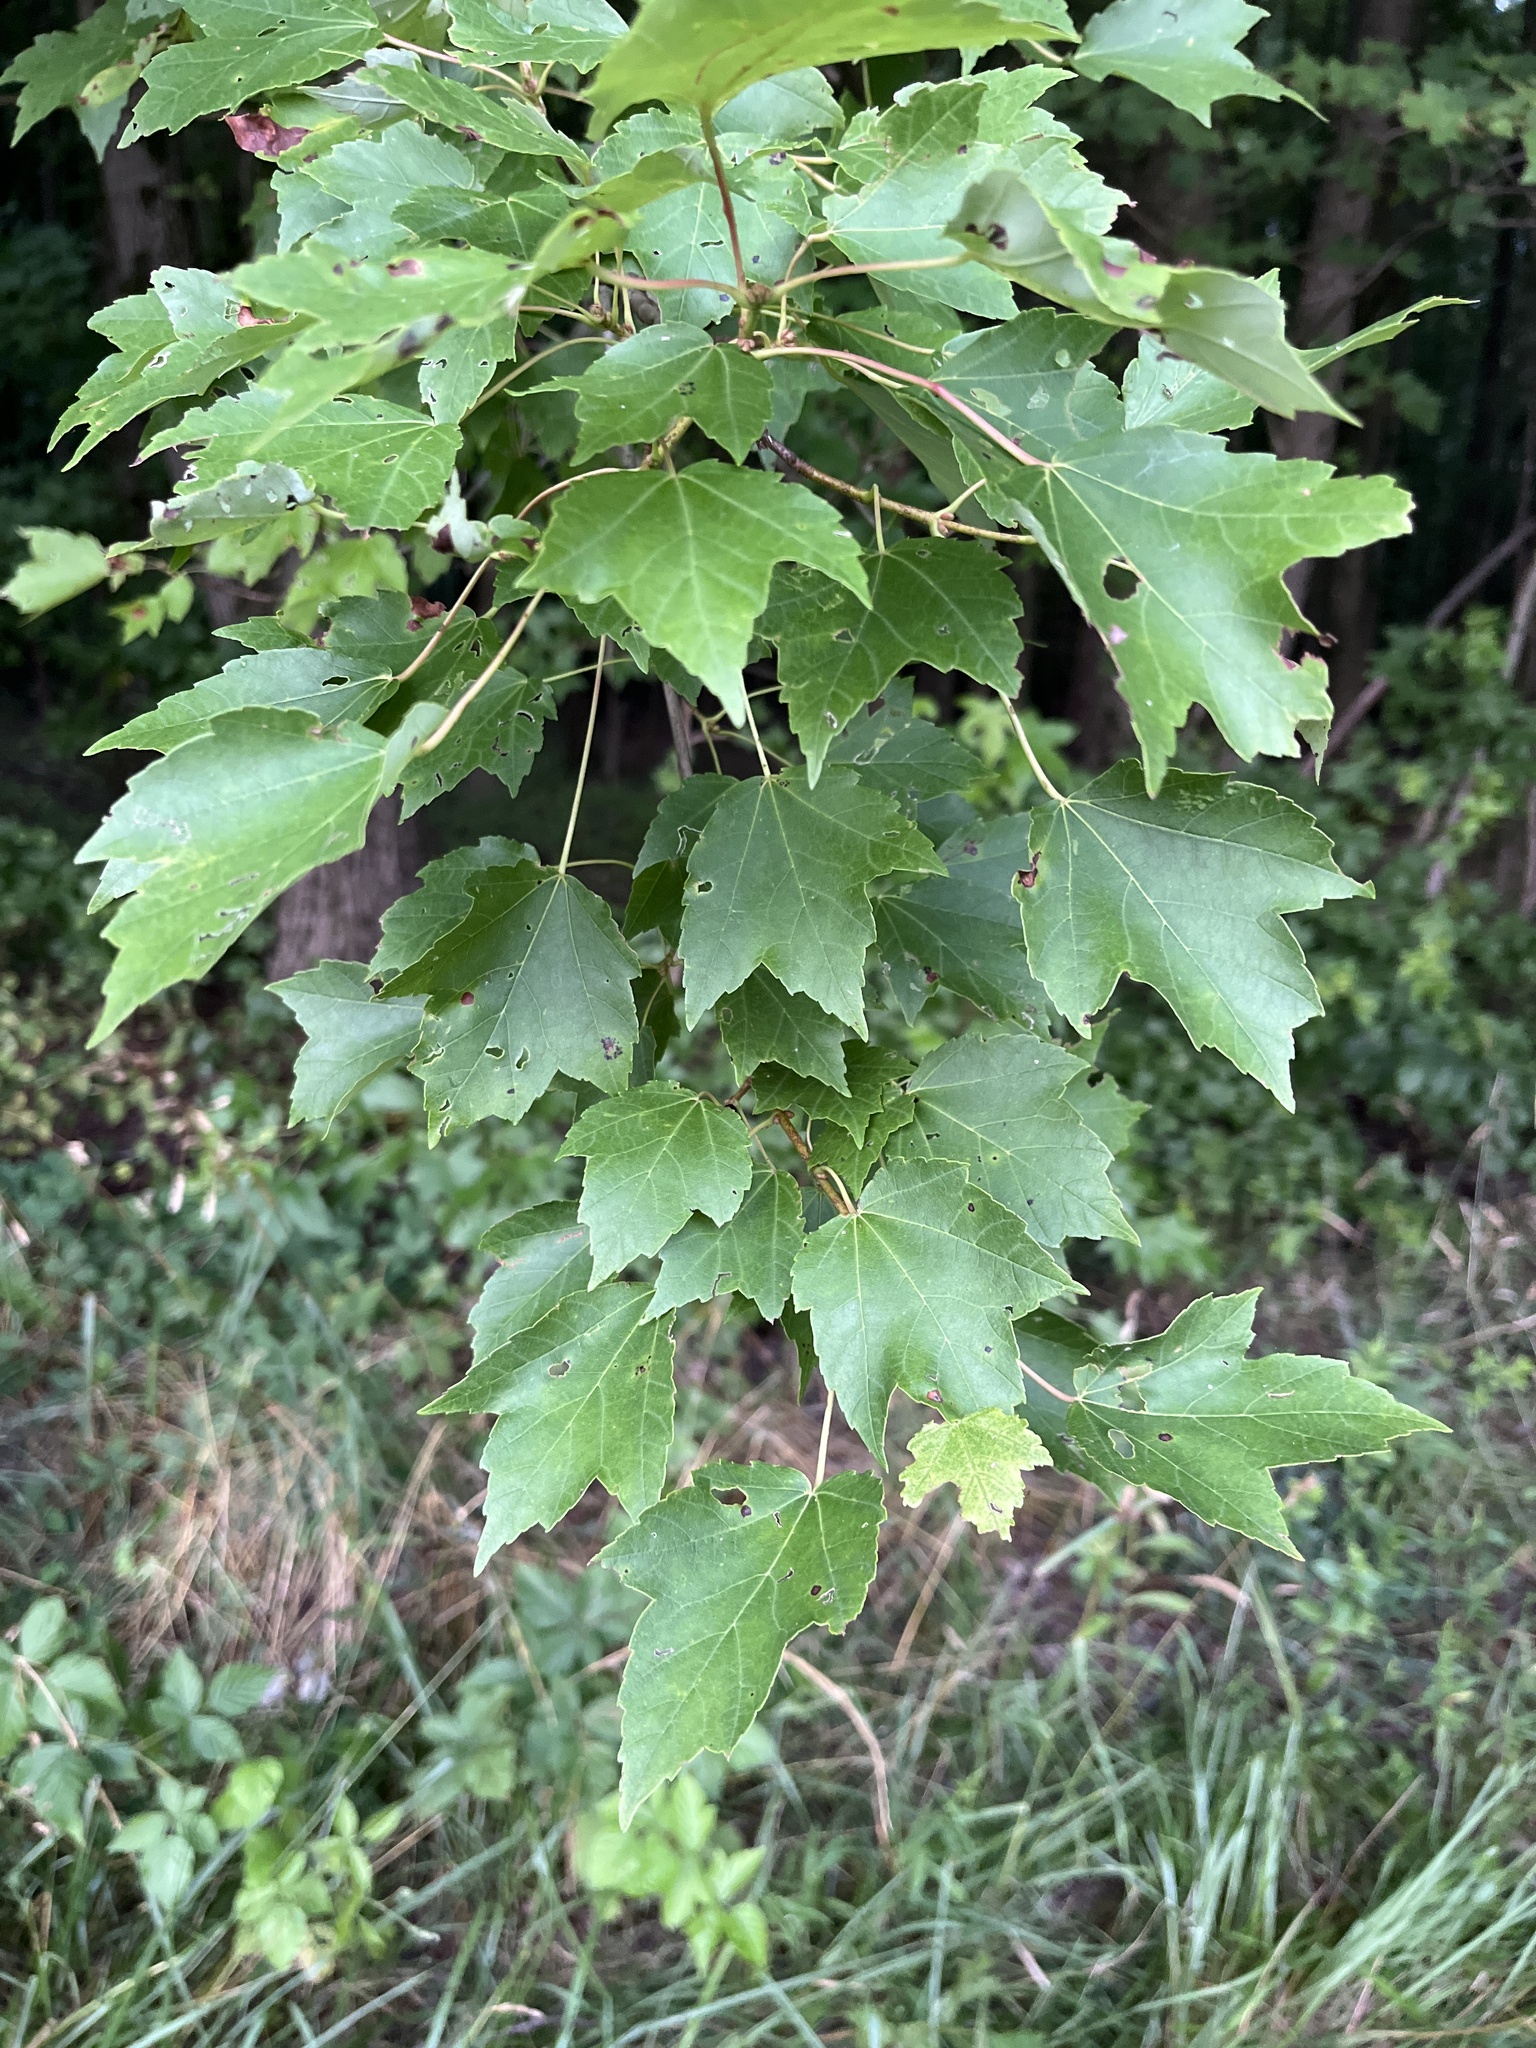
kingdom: Plantae
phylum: Tracheophyta
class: Magnoliopsida
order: Sapindales
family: Sapindaceae
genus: Acer
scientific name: Acer rubrum
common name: Red maple
